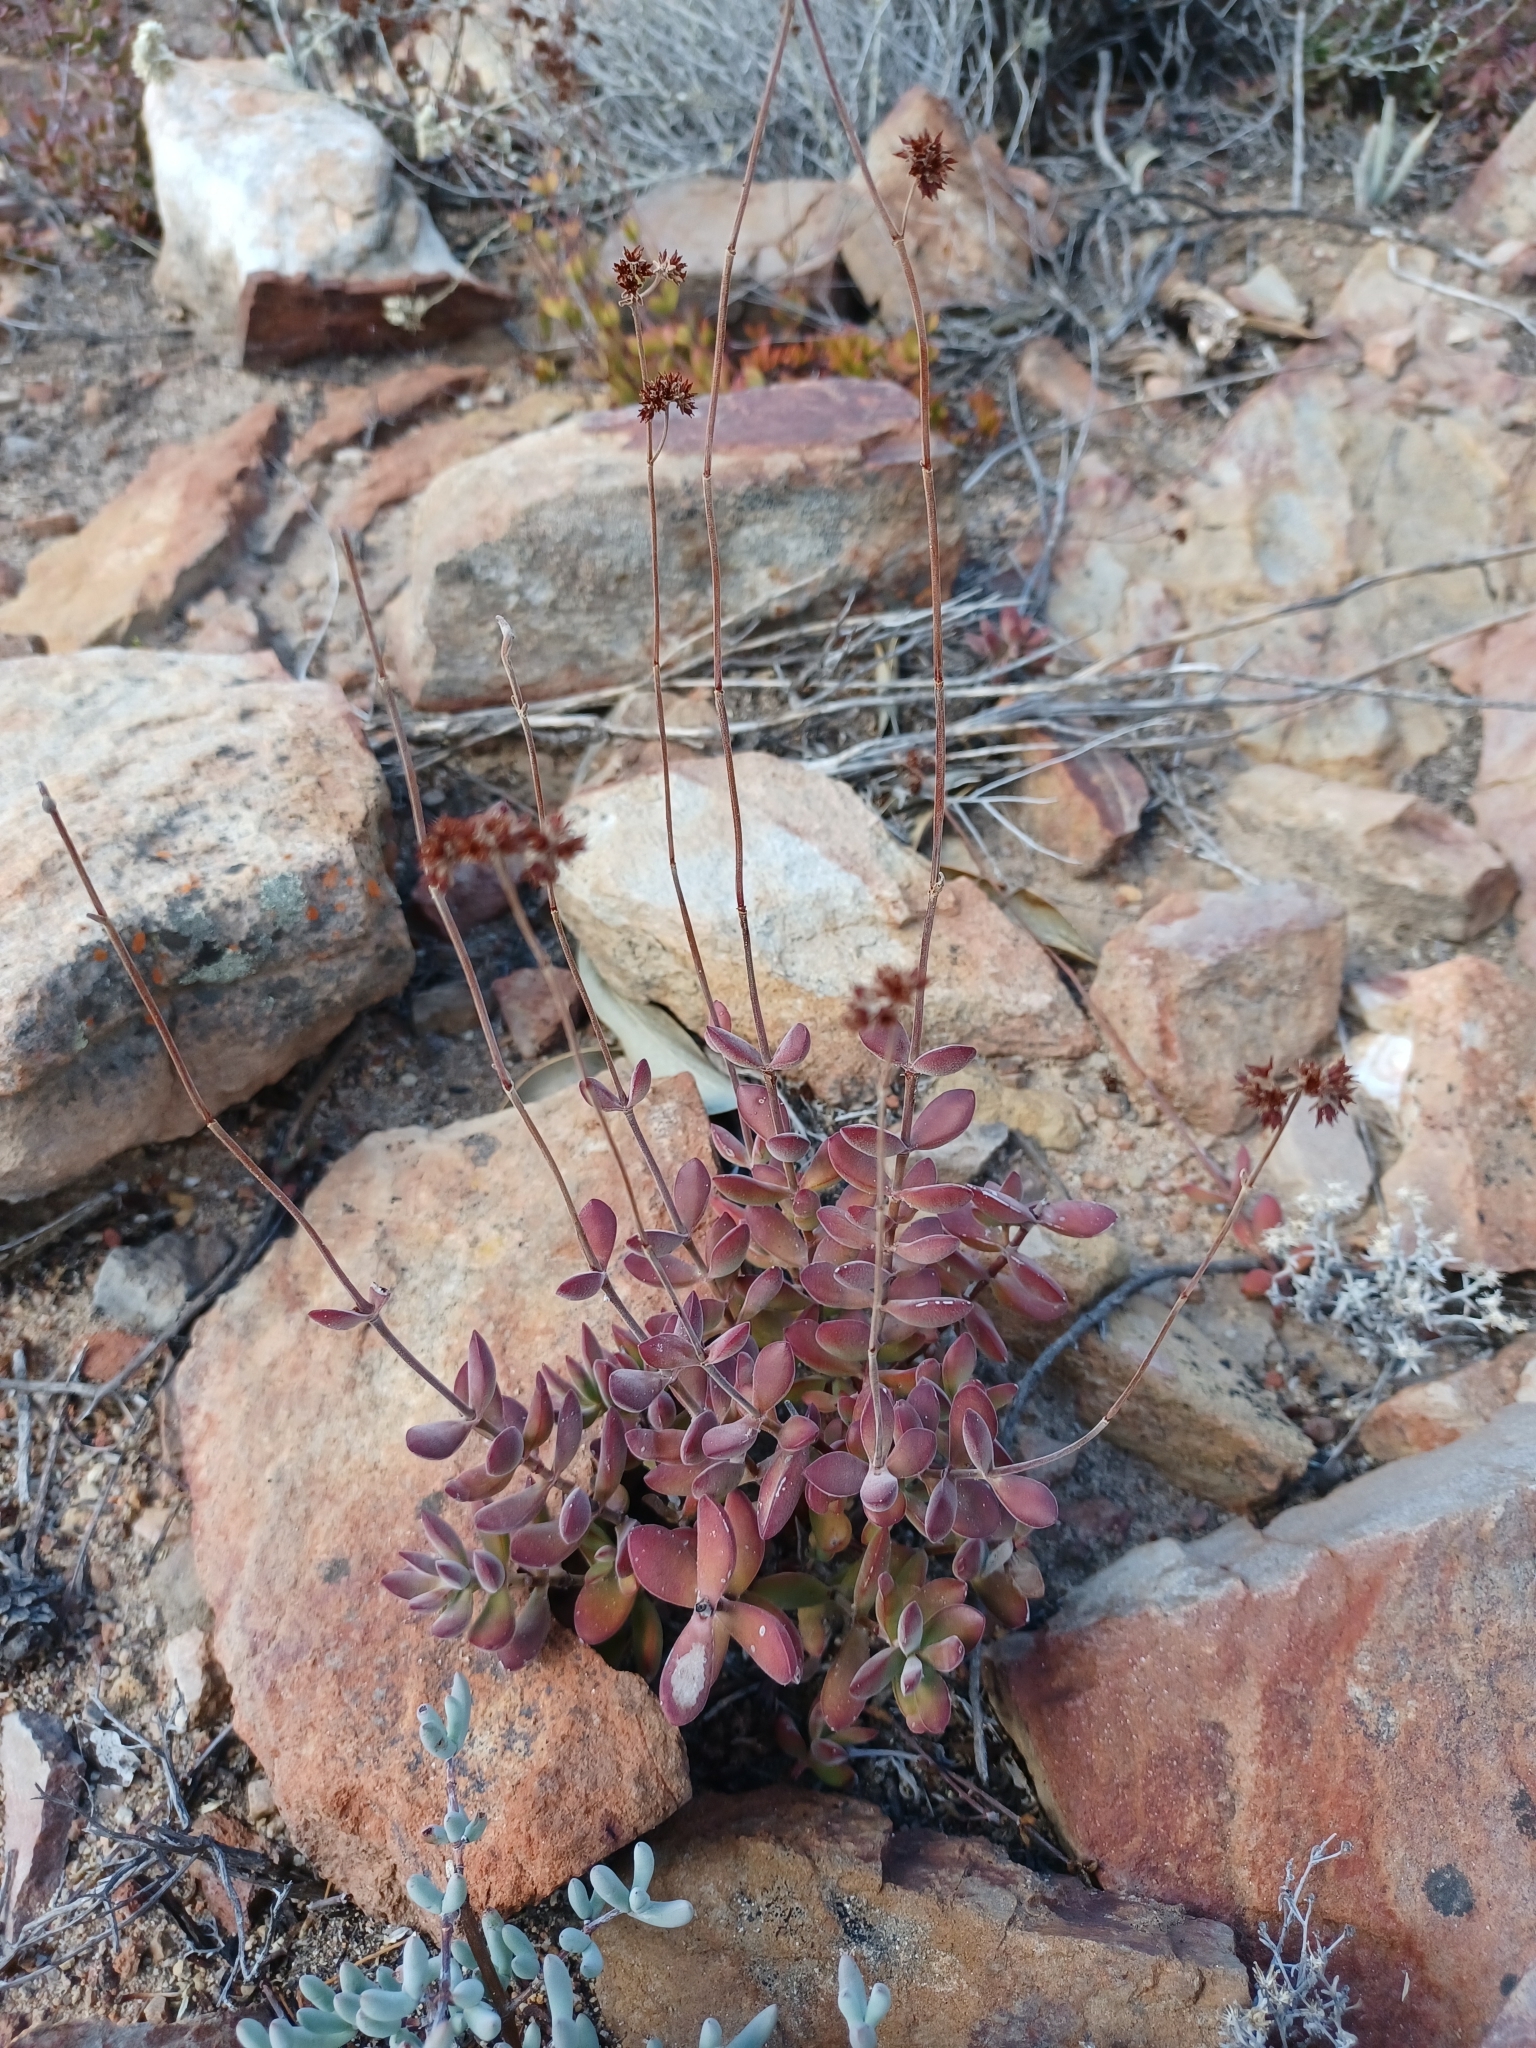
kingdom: Plantae
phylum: Tracheophyta
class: Magnoliopsida
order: Saxifragales
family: Crassulaceae
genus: Crassula
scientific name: Crassula atropurpurea
